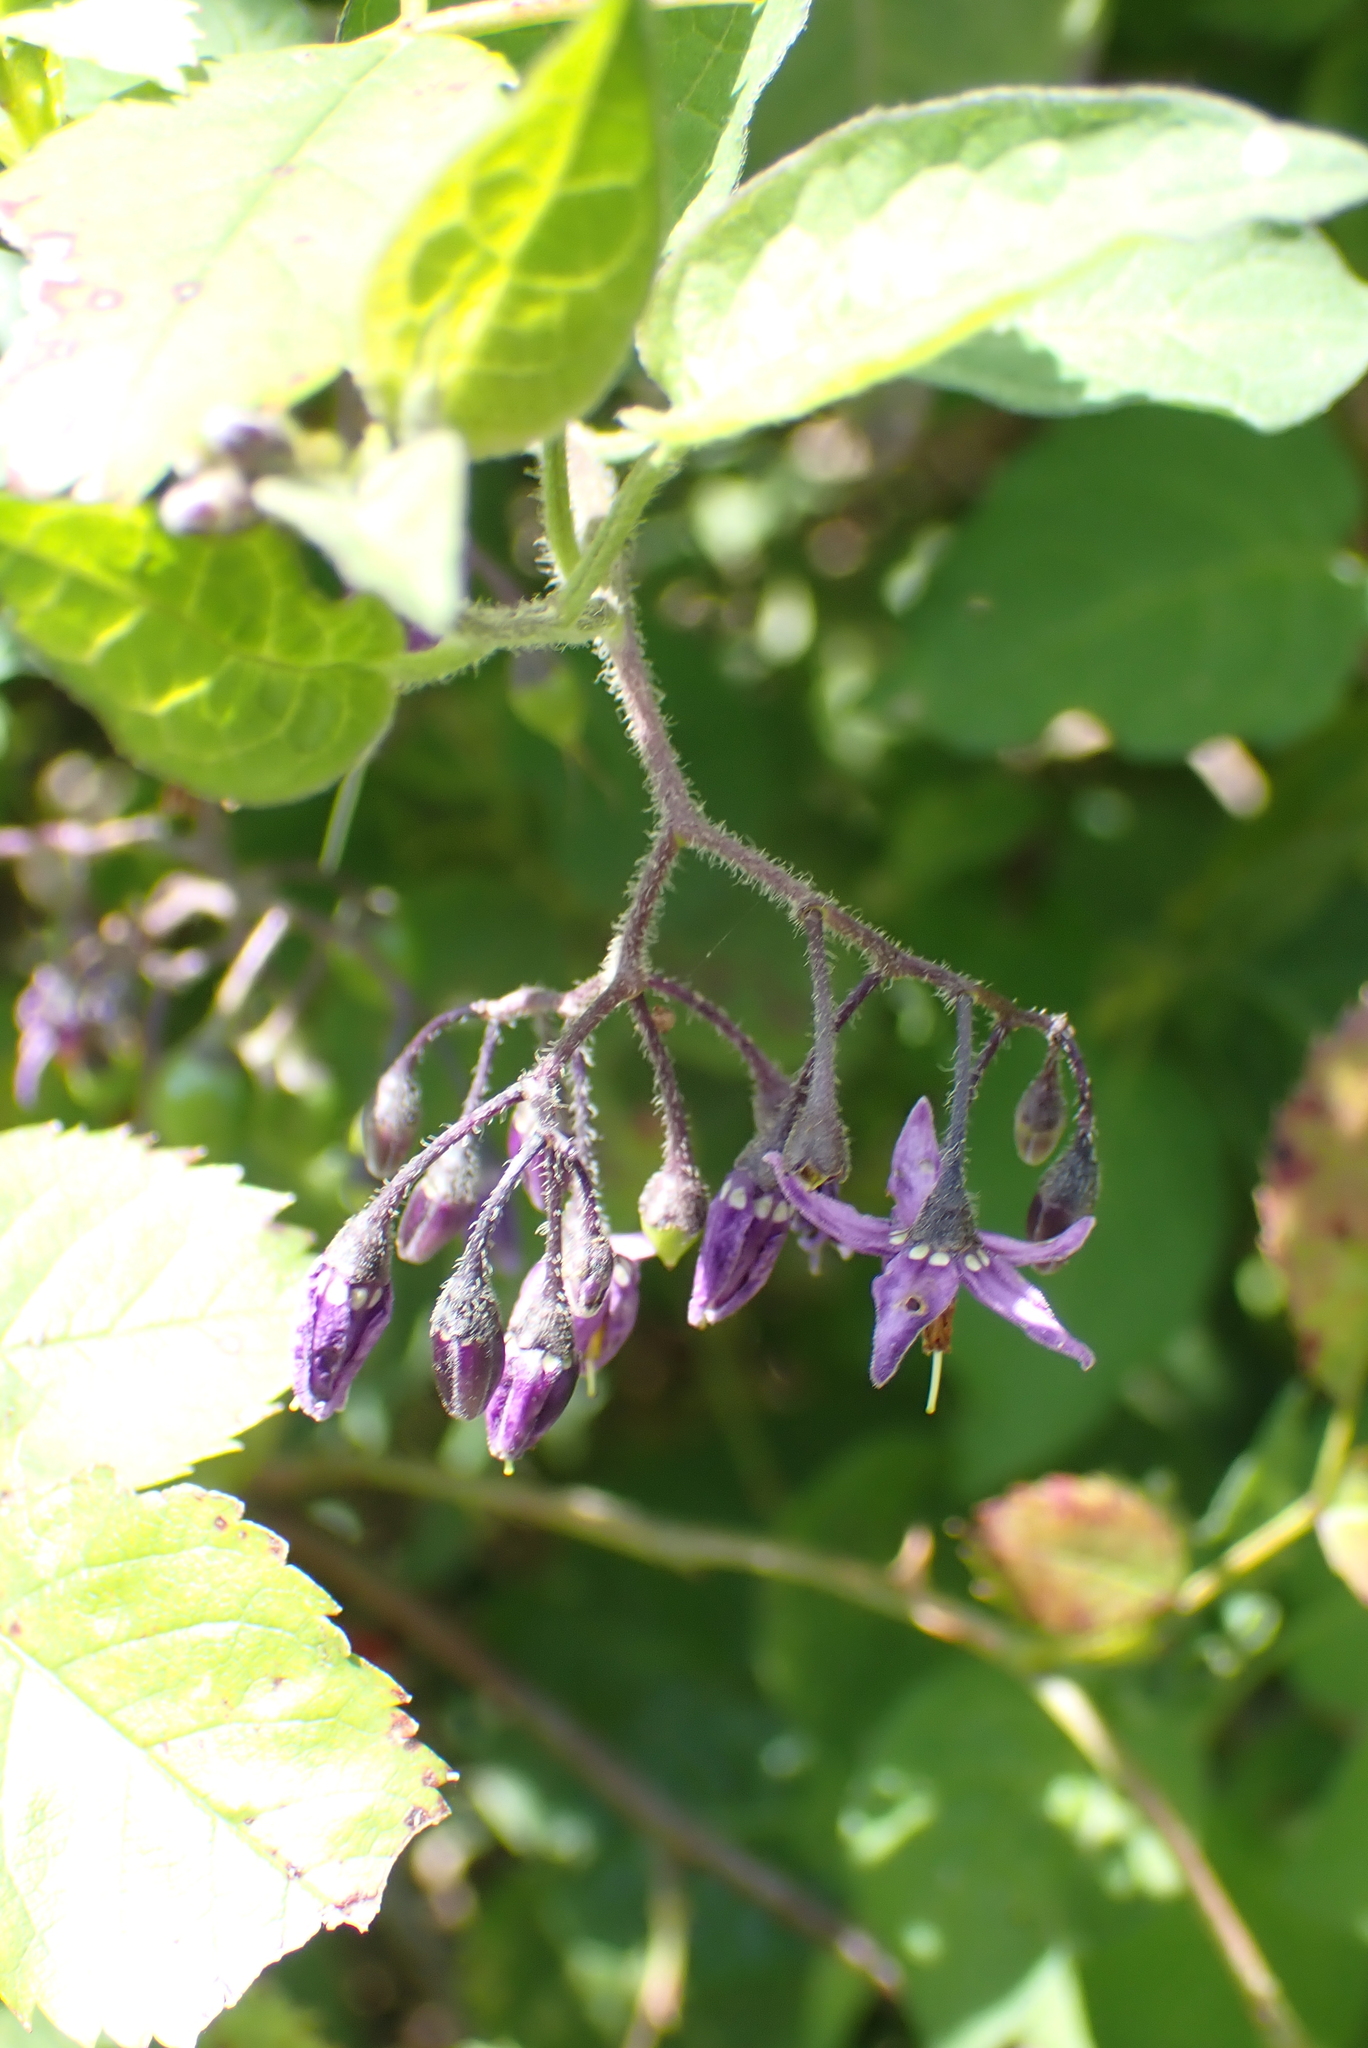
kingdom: Plantae
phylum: Tracheophyta
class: Magnoliopsida
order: Solanales
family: Solanaceae
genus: Solanum
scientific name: Solanum dulcamara
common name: Climbing nightshade
